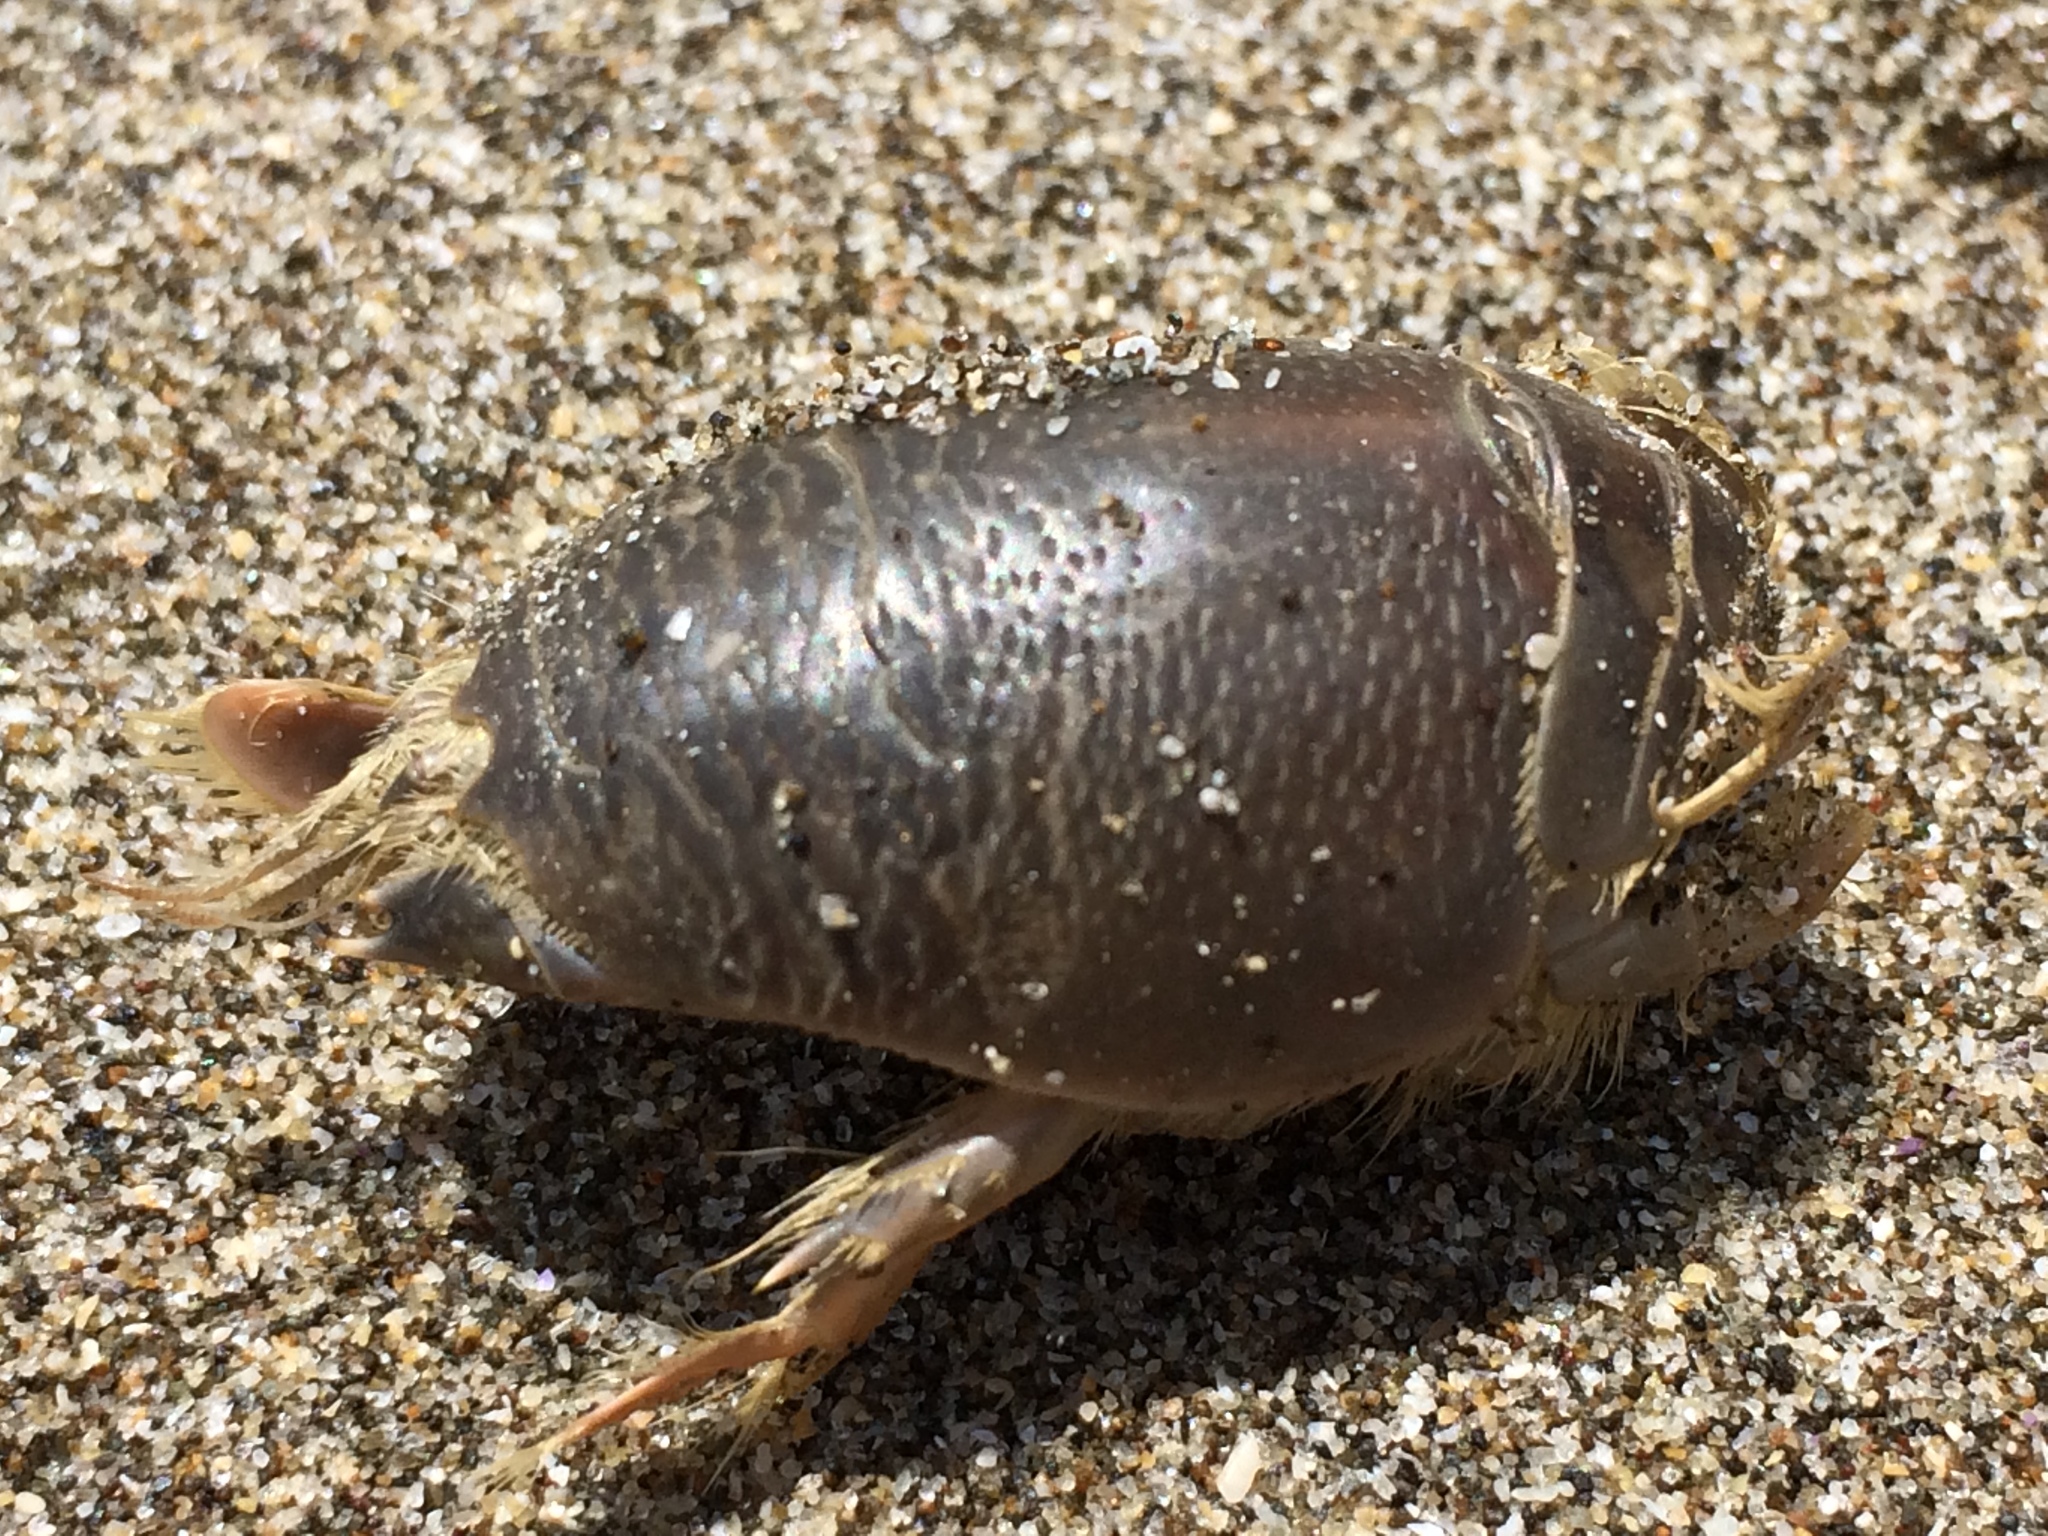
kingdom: Animalia
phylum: Arthropoda
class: Malacostraca
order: Decapoda
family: Hippidae
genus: Emerita
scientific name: Emerita analoga
